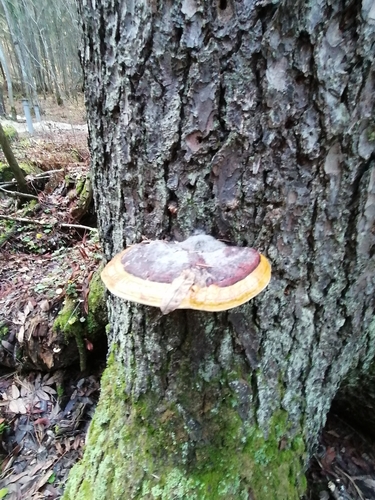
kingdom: Fungi
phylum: Basidiomycota
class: Agaricomycetes
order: Polyporales
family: Fomitopsidaceae
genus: Fomitopsis
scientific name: Fomitopsis pinicola
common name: Red-belted bracket
